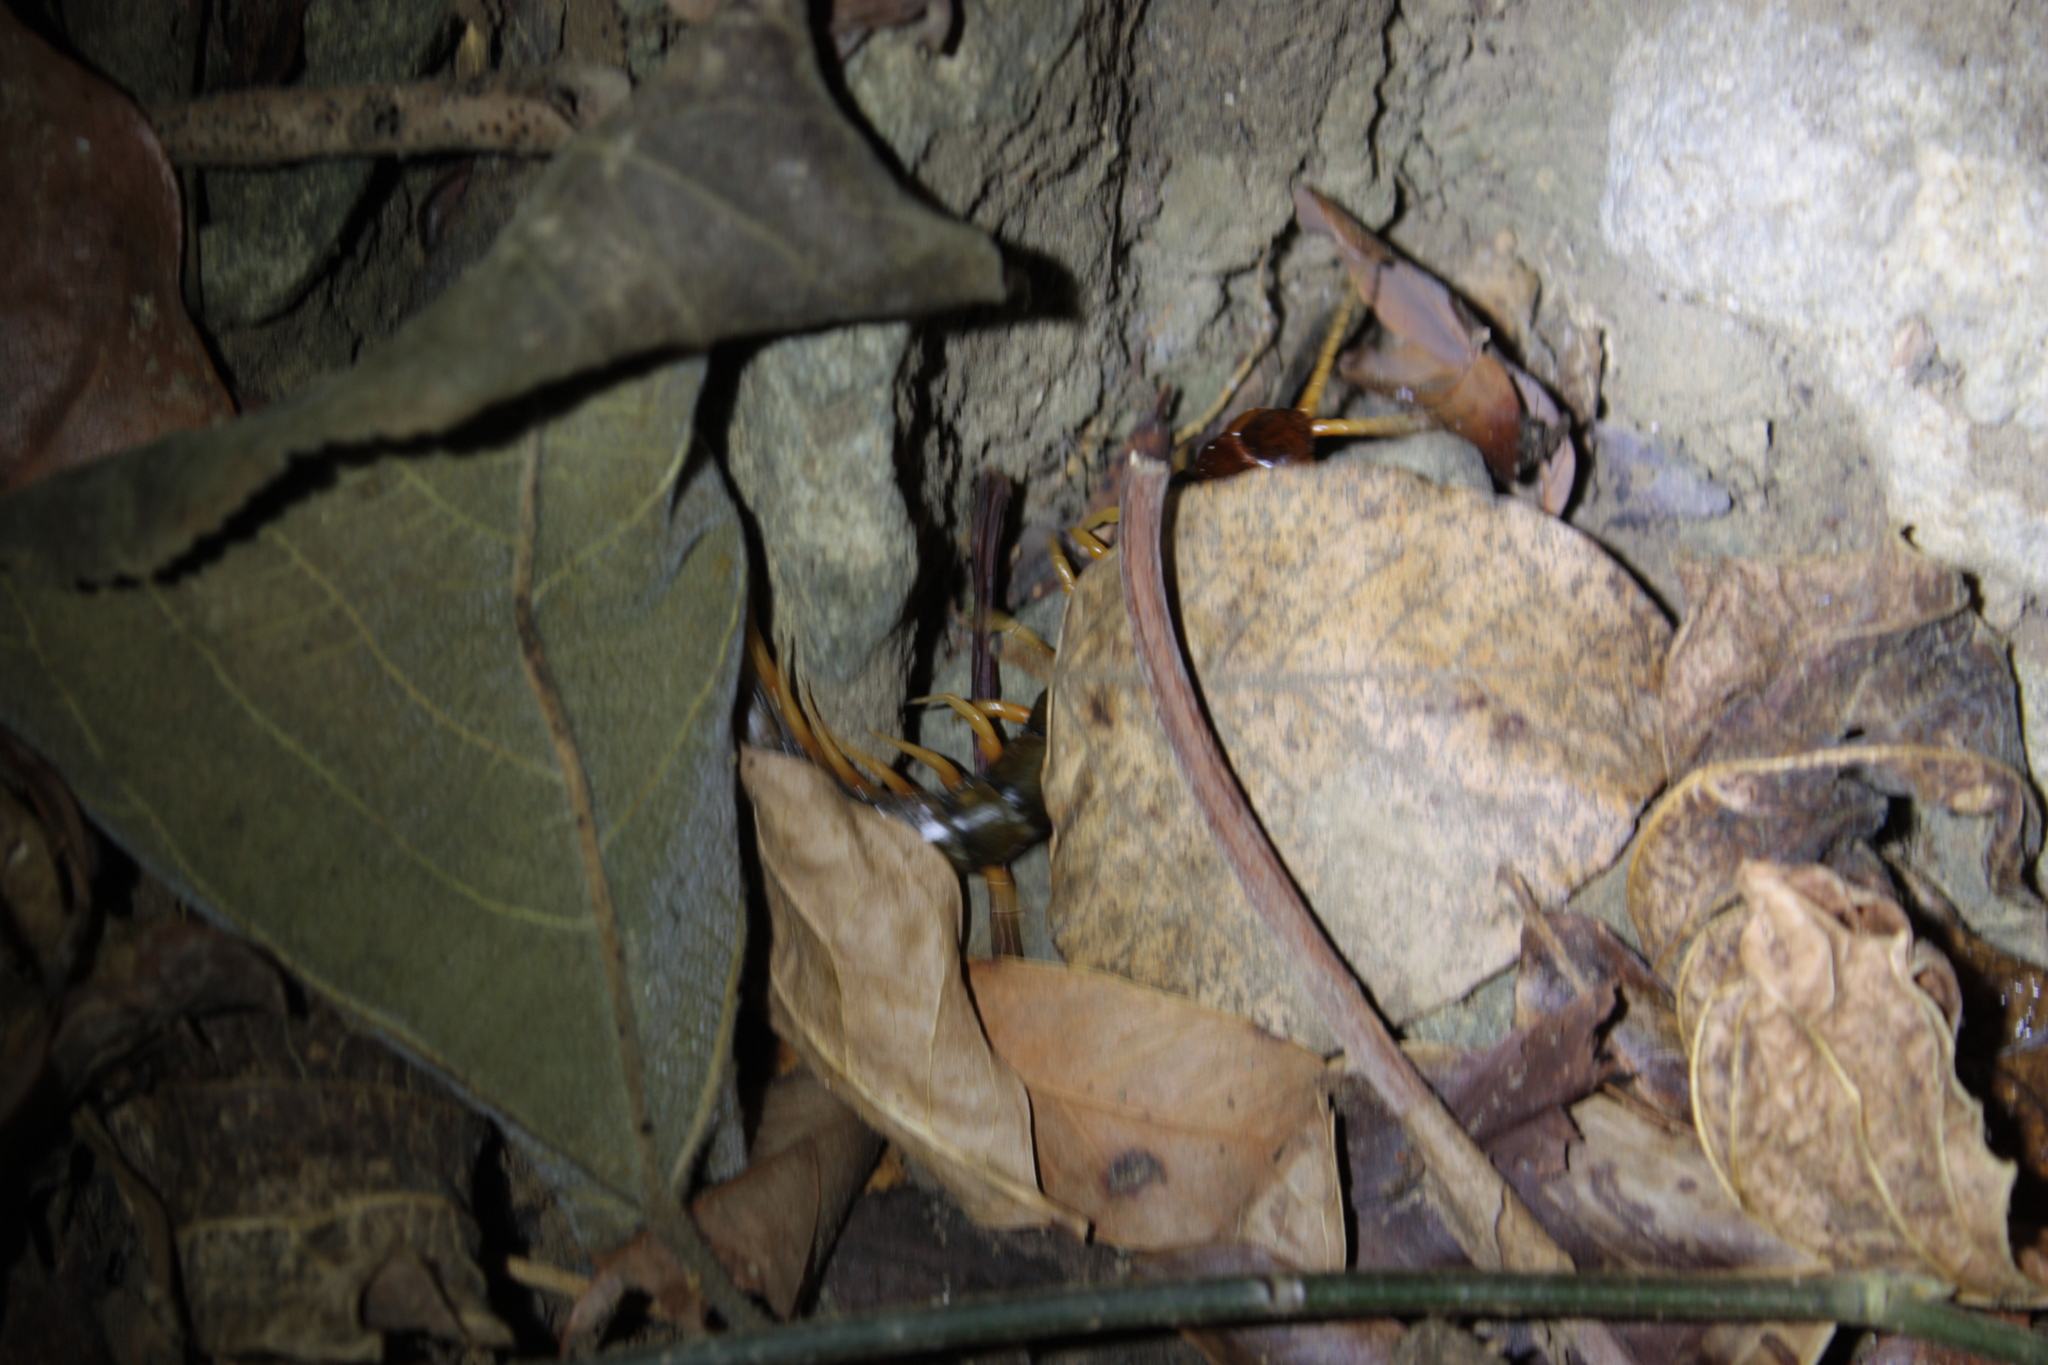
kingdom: Animalia
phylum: Arthropoda
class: Chilopoda
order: Scolopendromorpha
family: Scolopendridae
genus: Scolopendra
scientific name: Scolopendra mutilans
